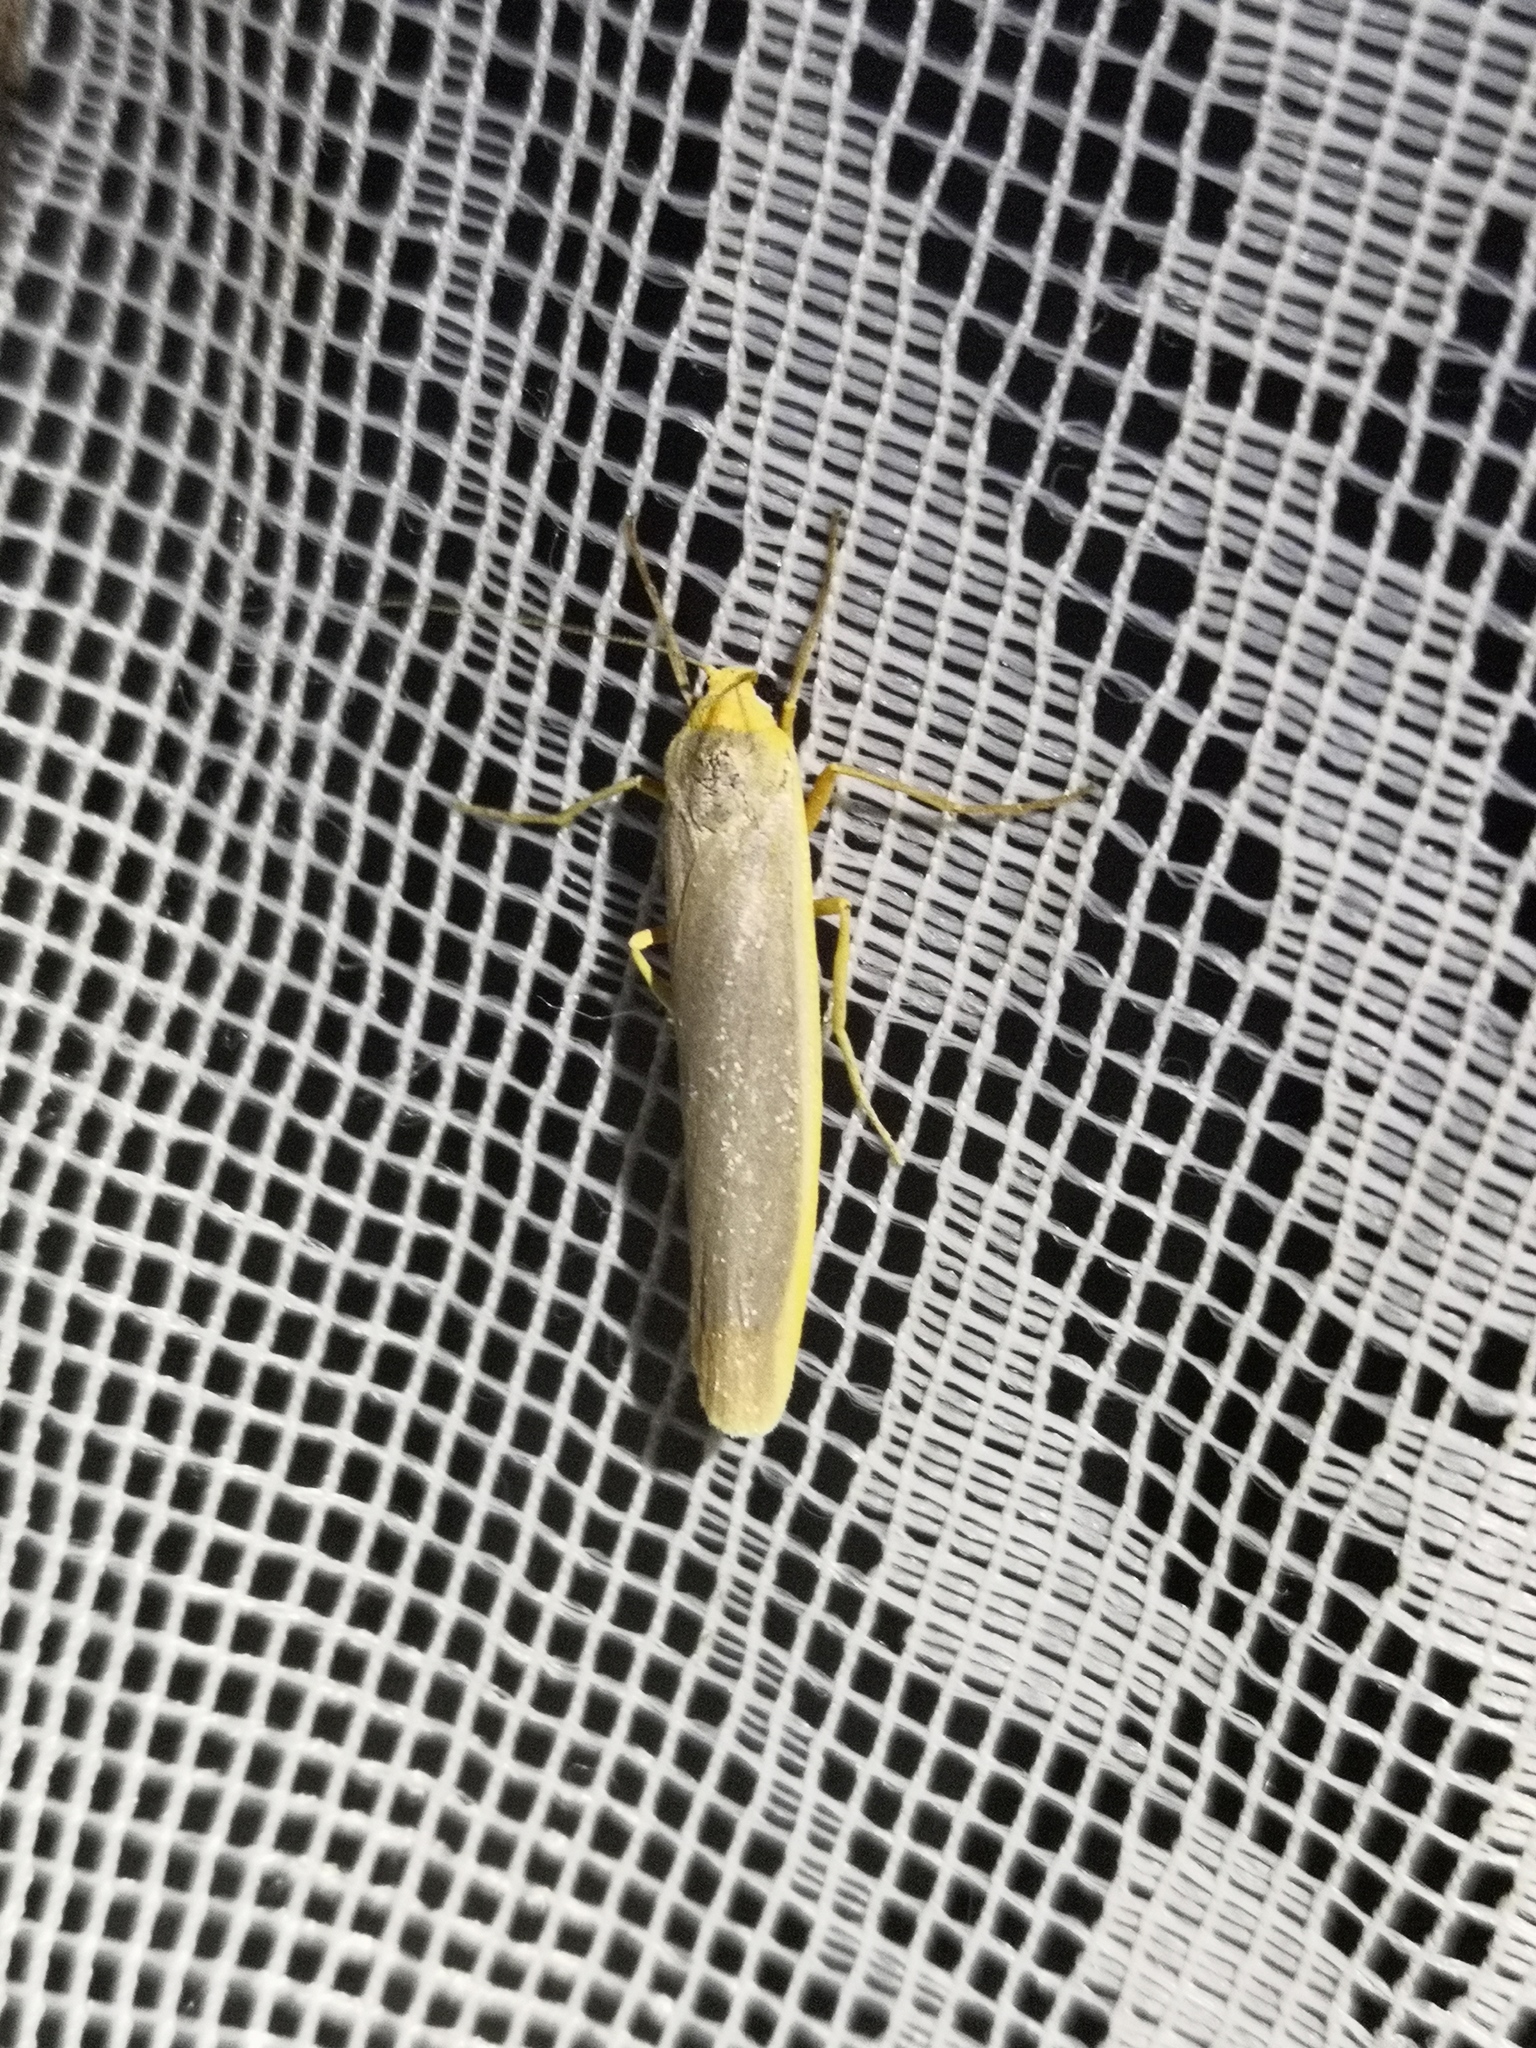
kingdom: Animalia
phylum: Arthropoda
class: Insecta
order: Lepidoptera
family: Erebidae
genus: Manulea
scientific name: Manulea complana
